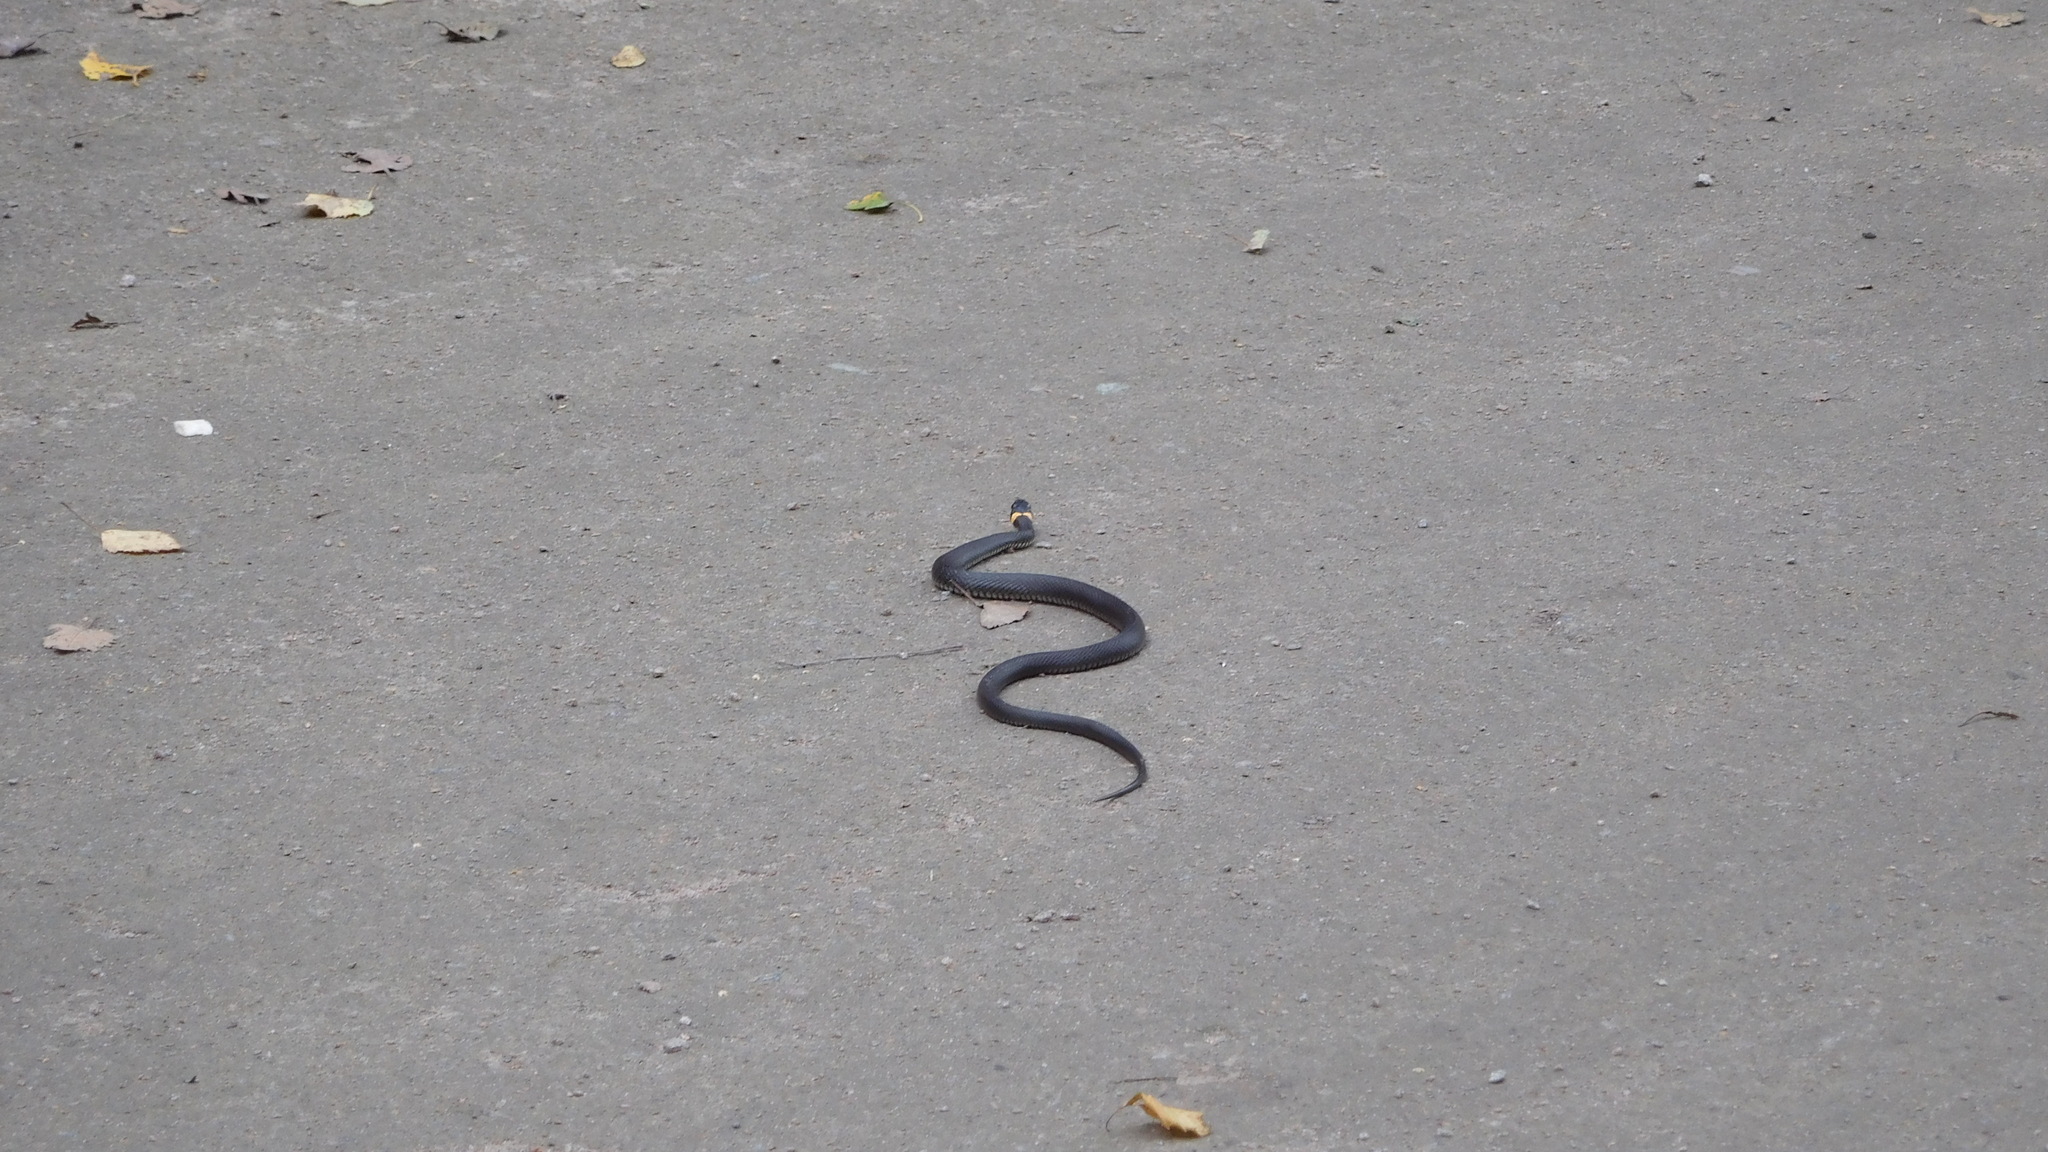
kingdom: Animalia
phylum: Chordata
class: Squamata
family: Colubridae
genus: Natrix
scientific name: Natrix natrix
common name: Grass snake
